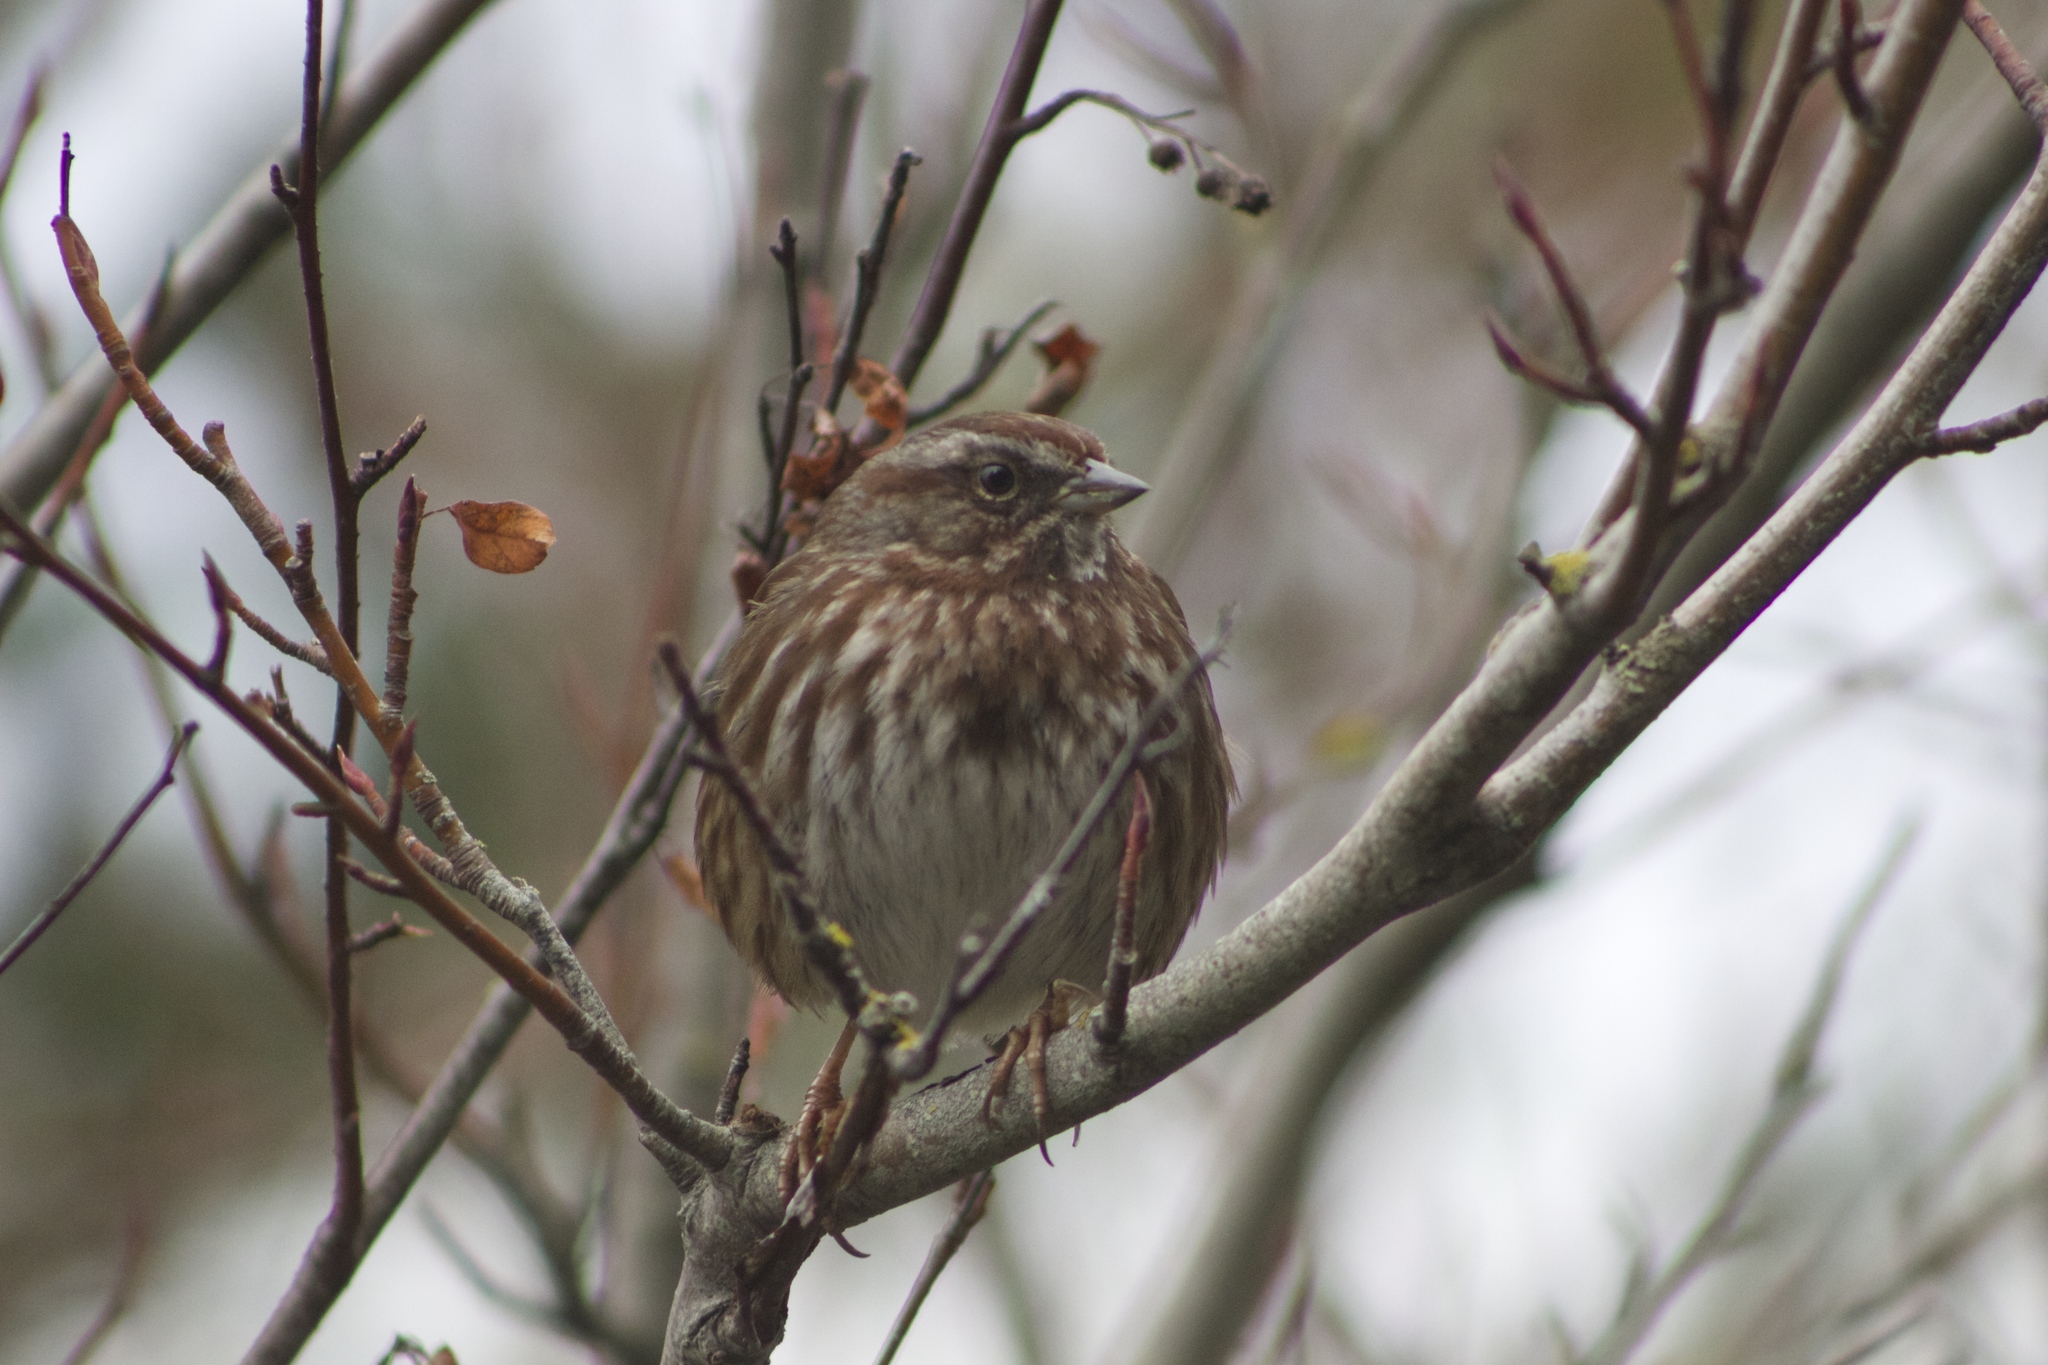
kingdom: Animalia
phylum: Chordata
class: Aves
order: Passeriformes
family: Passerellidae
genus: Melospiza
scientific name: Melospiza melodia
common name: Song sparrow
